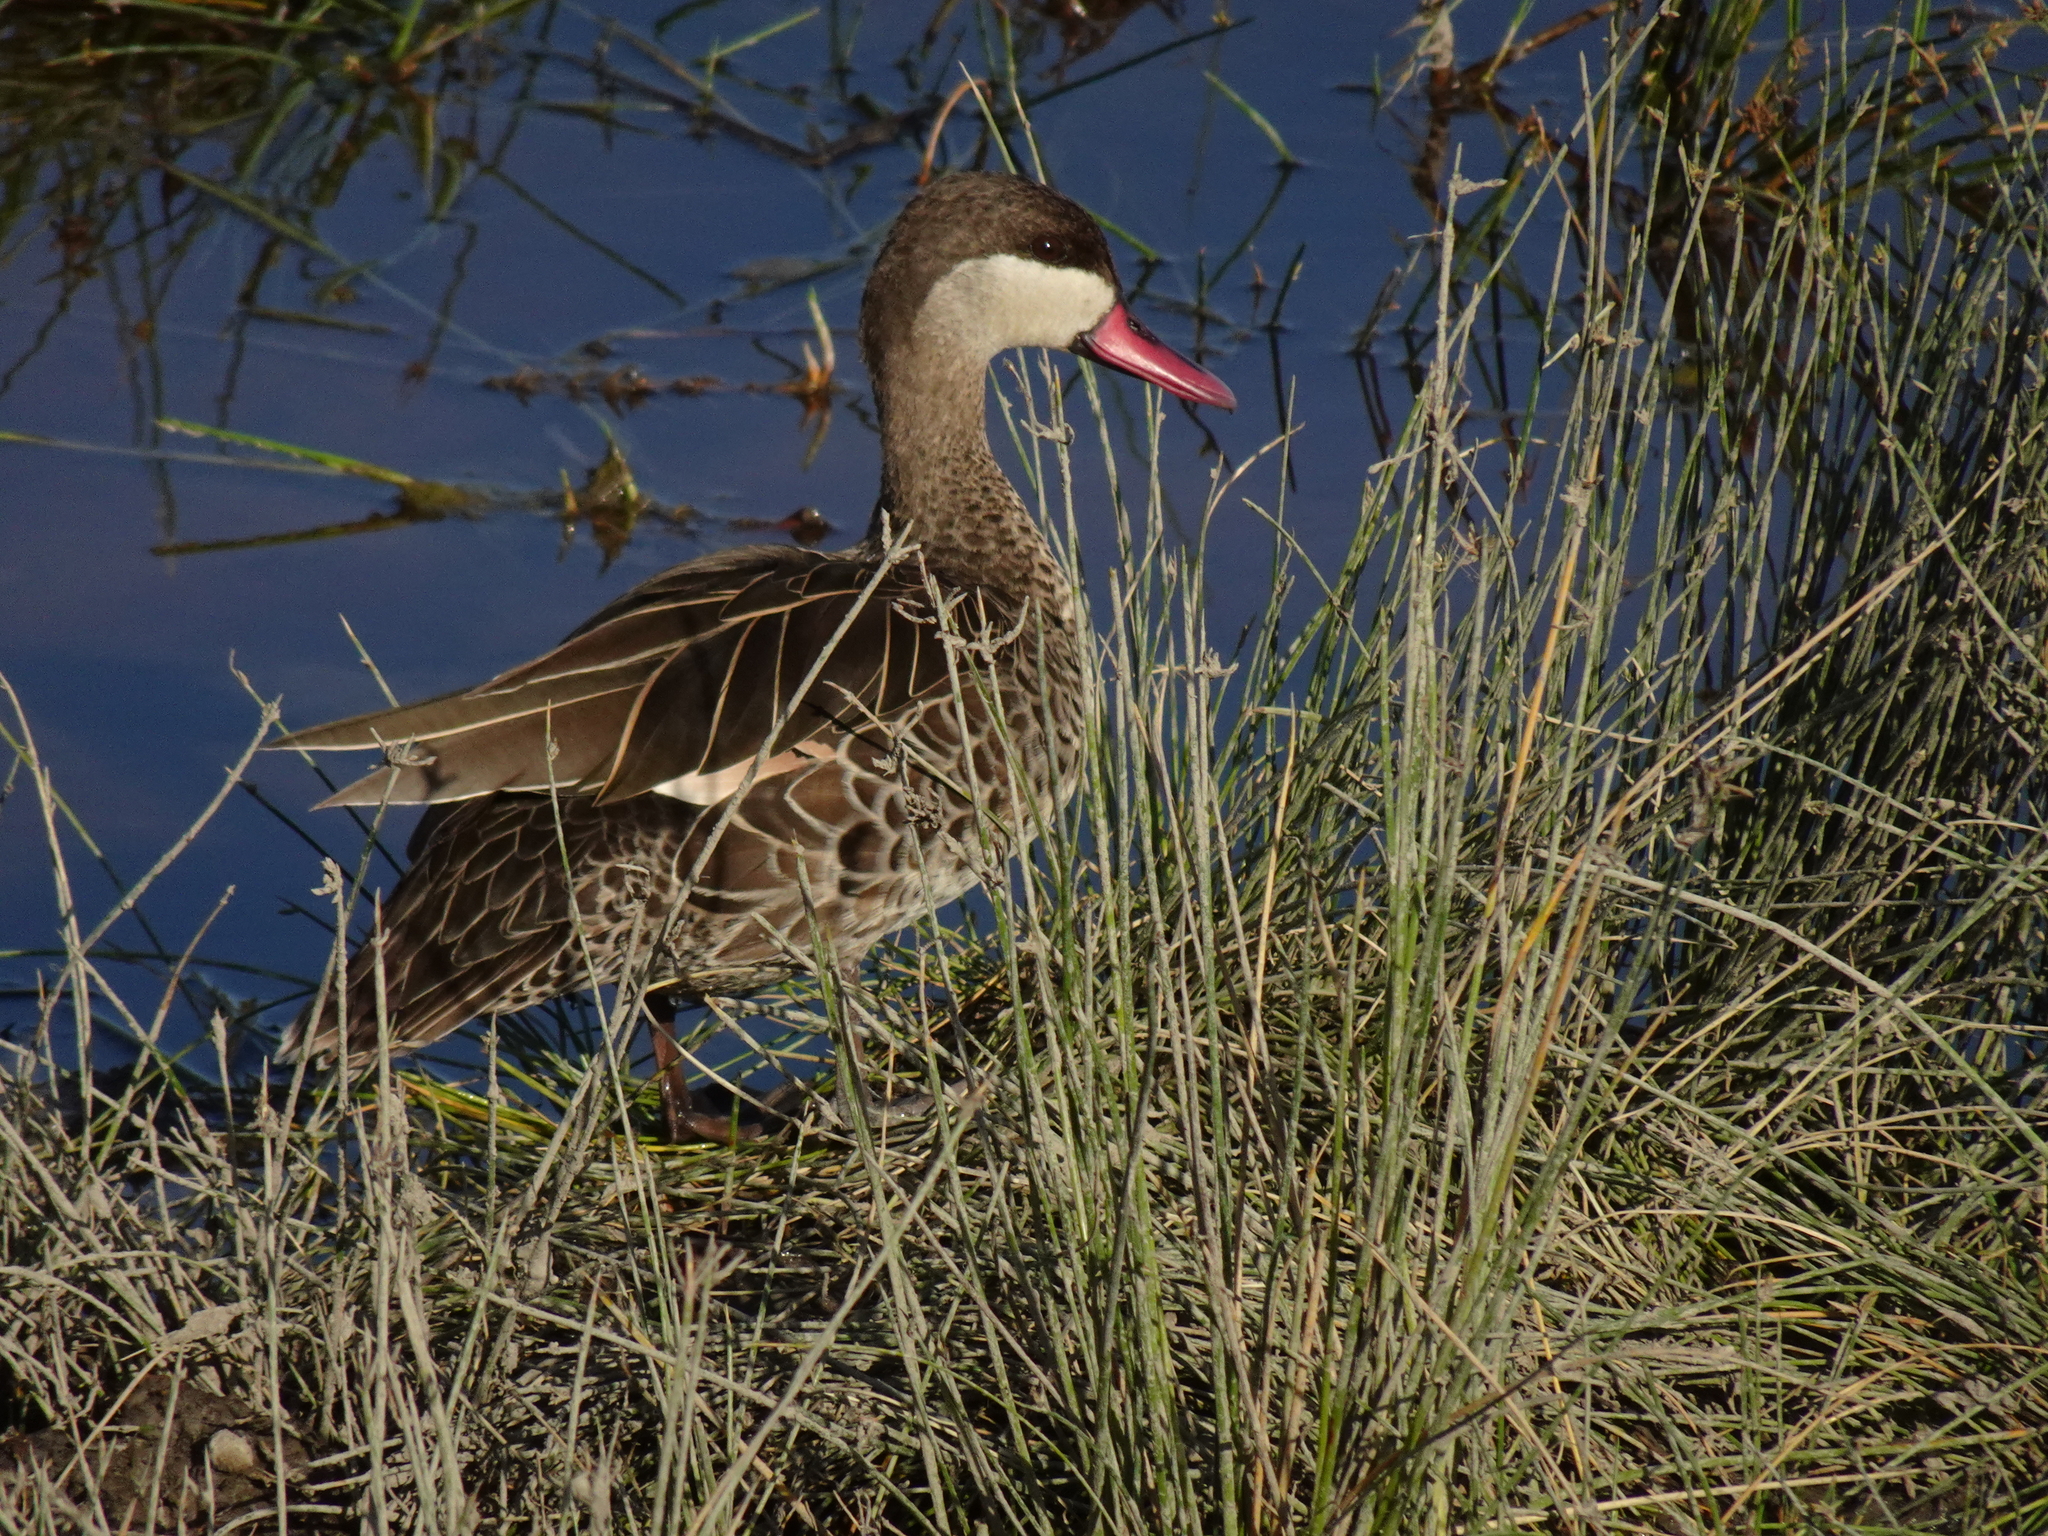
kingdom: Animalia
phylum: Chordata
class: Aves
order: Anseriformes
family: Anatidae
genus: Anas
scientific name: Anas erythrorhyncha
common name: Red-billed teal
